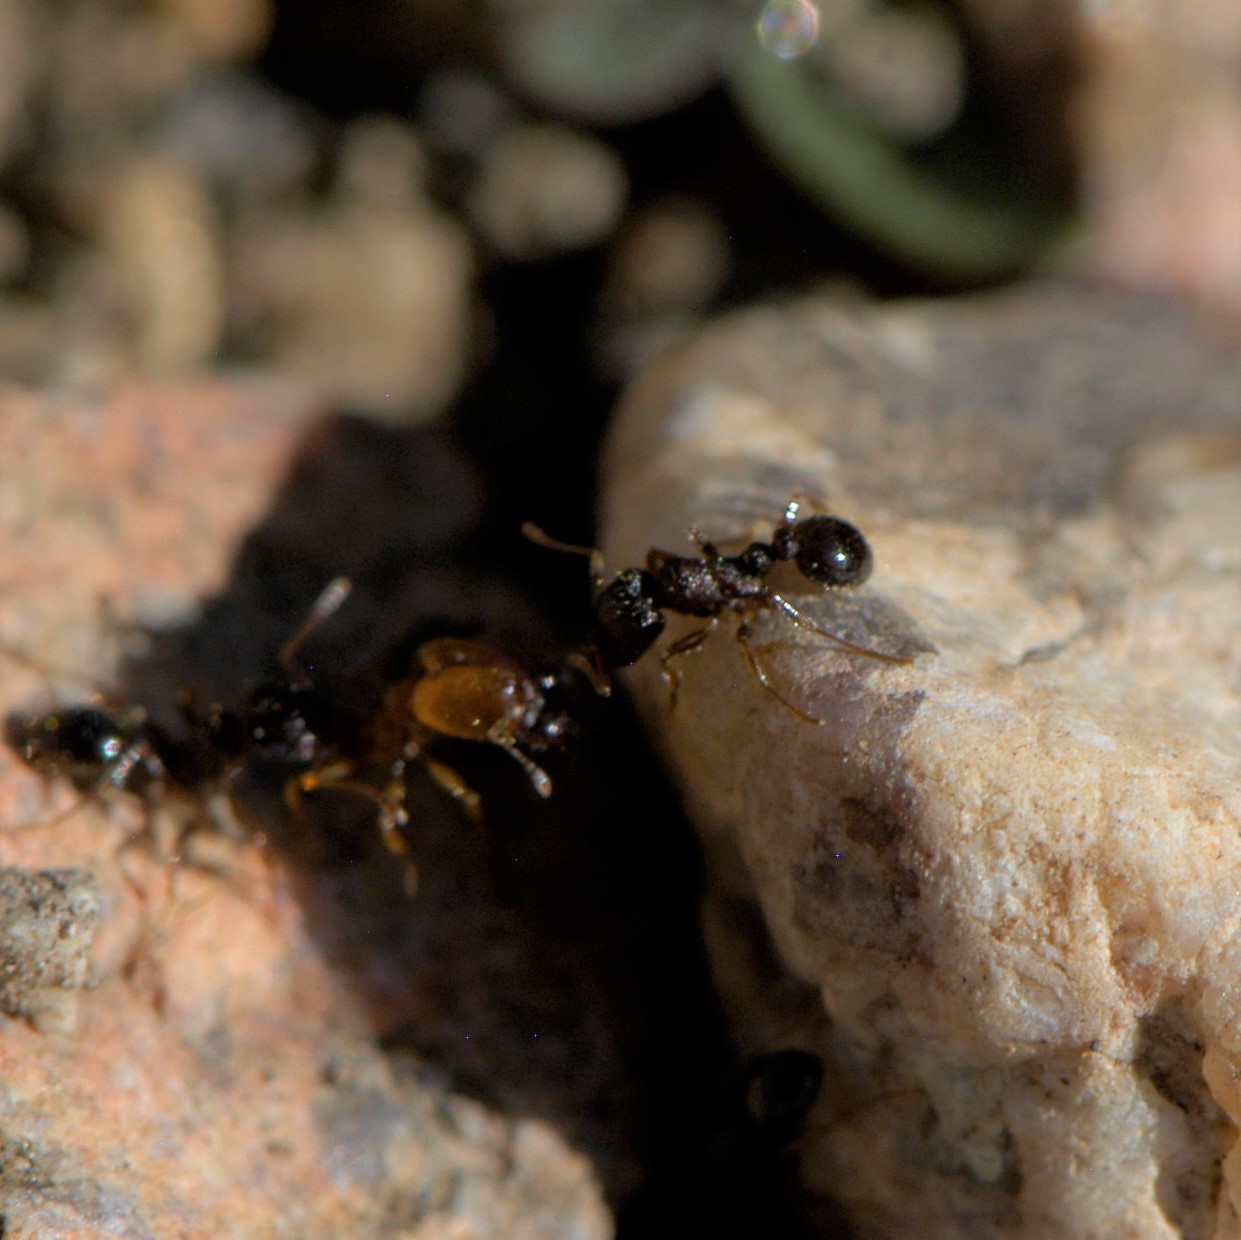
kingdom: Animalia
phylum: Arthropoda
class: Insecta
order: Hymenoptera
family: Formicidae
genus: Pheidole
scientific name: Pheidole
